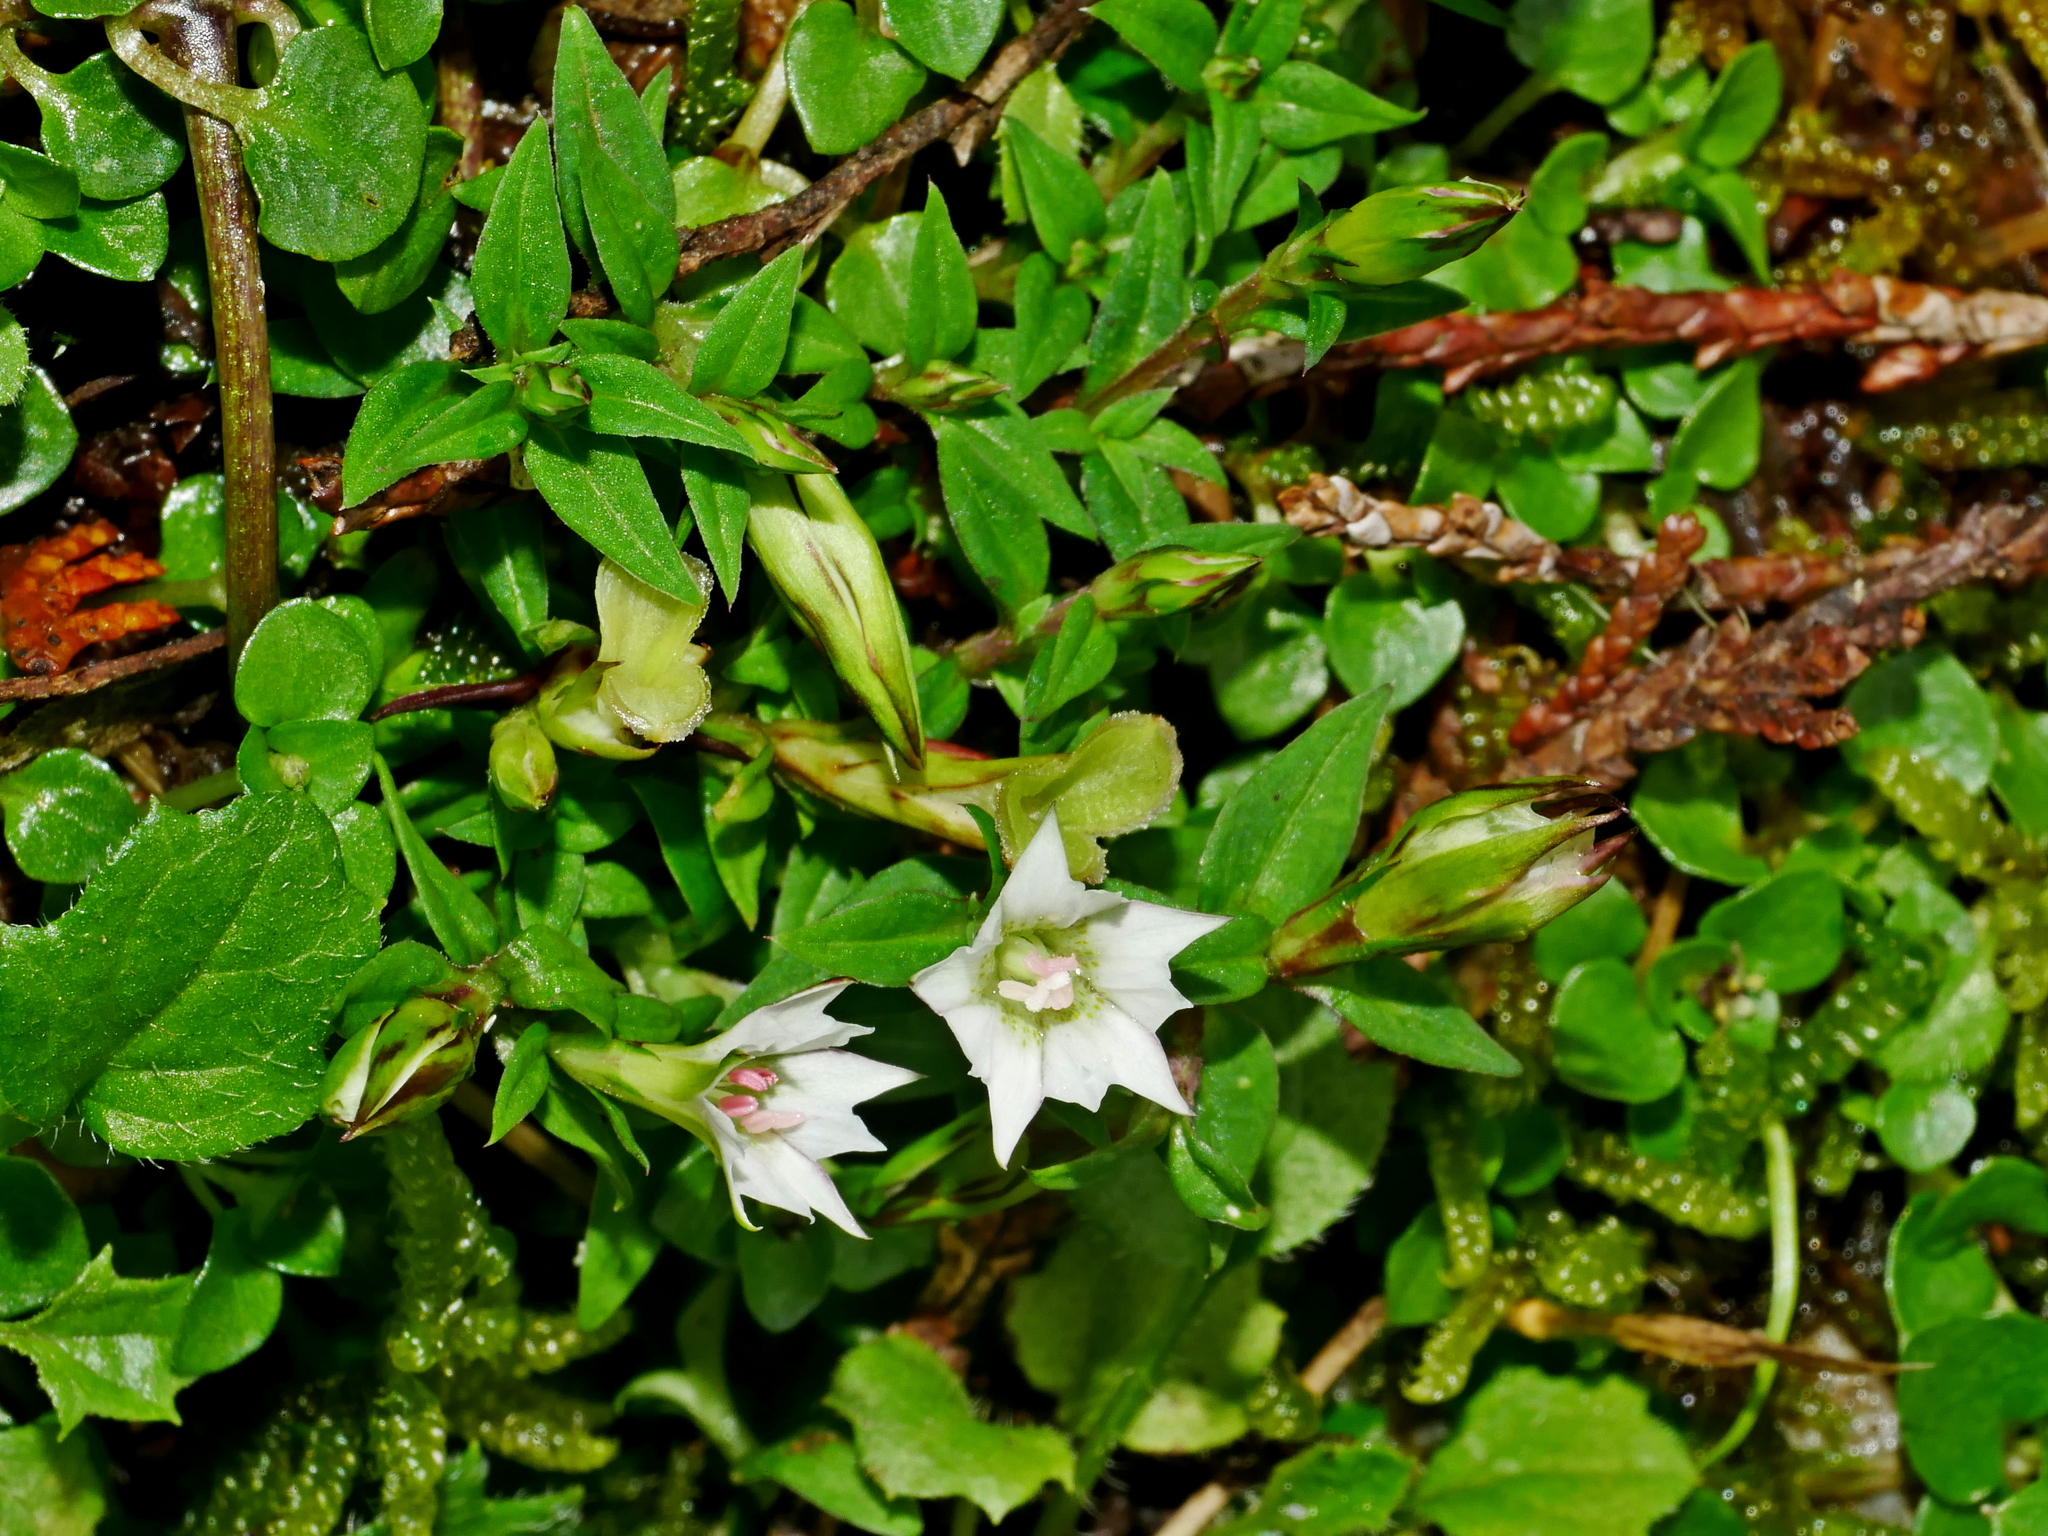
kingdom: Plantae
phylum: Tracheophyta
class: Magnoliopsida
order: Gentianales
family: Gentianaceae
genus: Gentiana
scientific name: Gentiana flavomaculata
